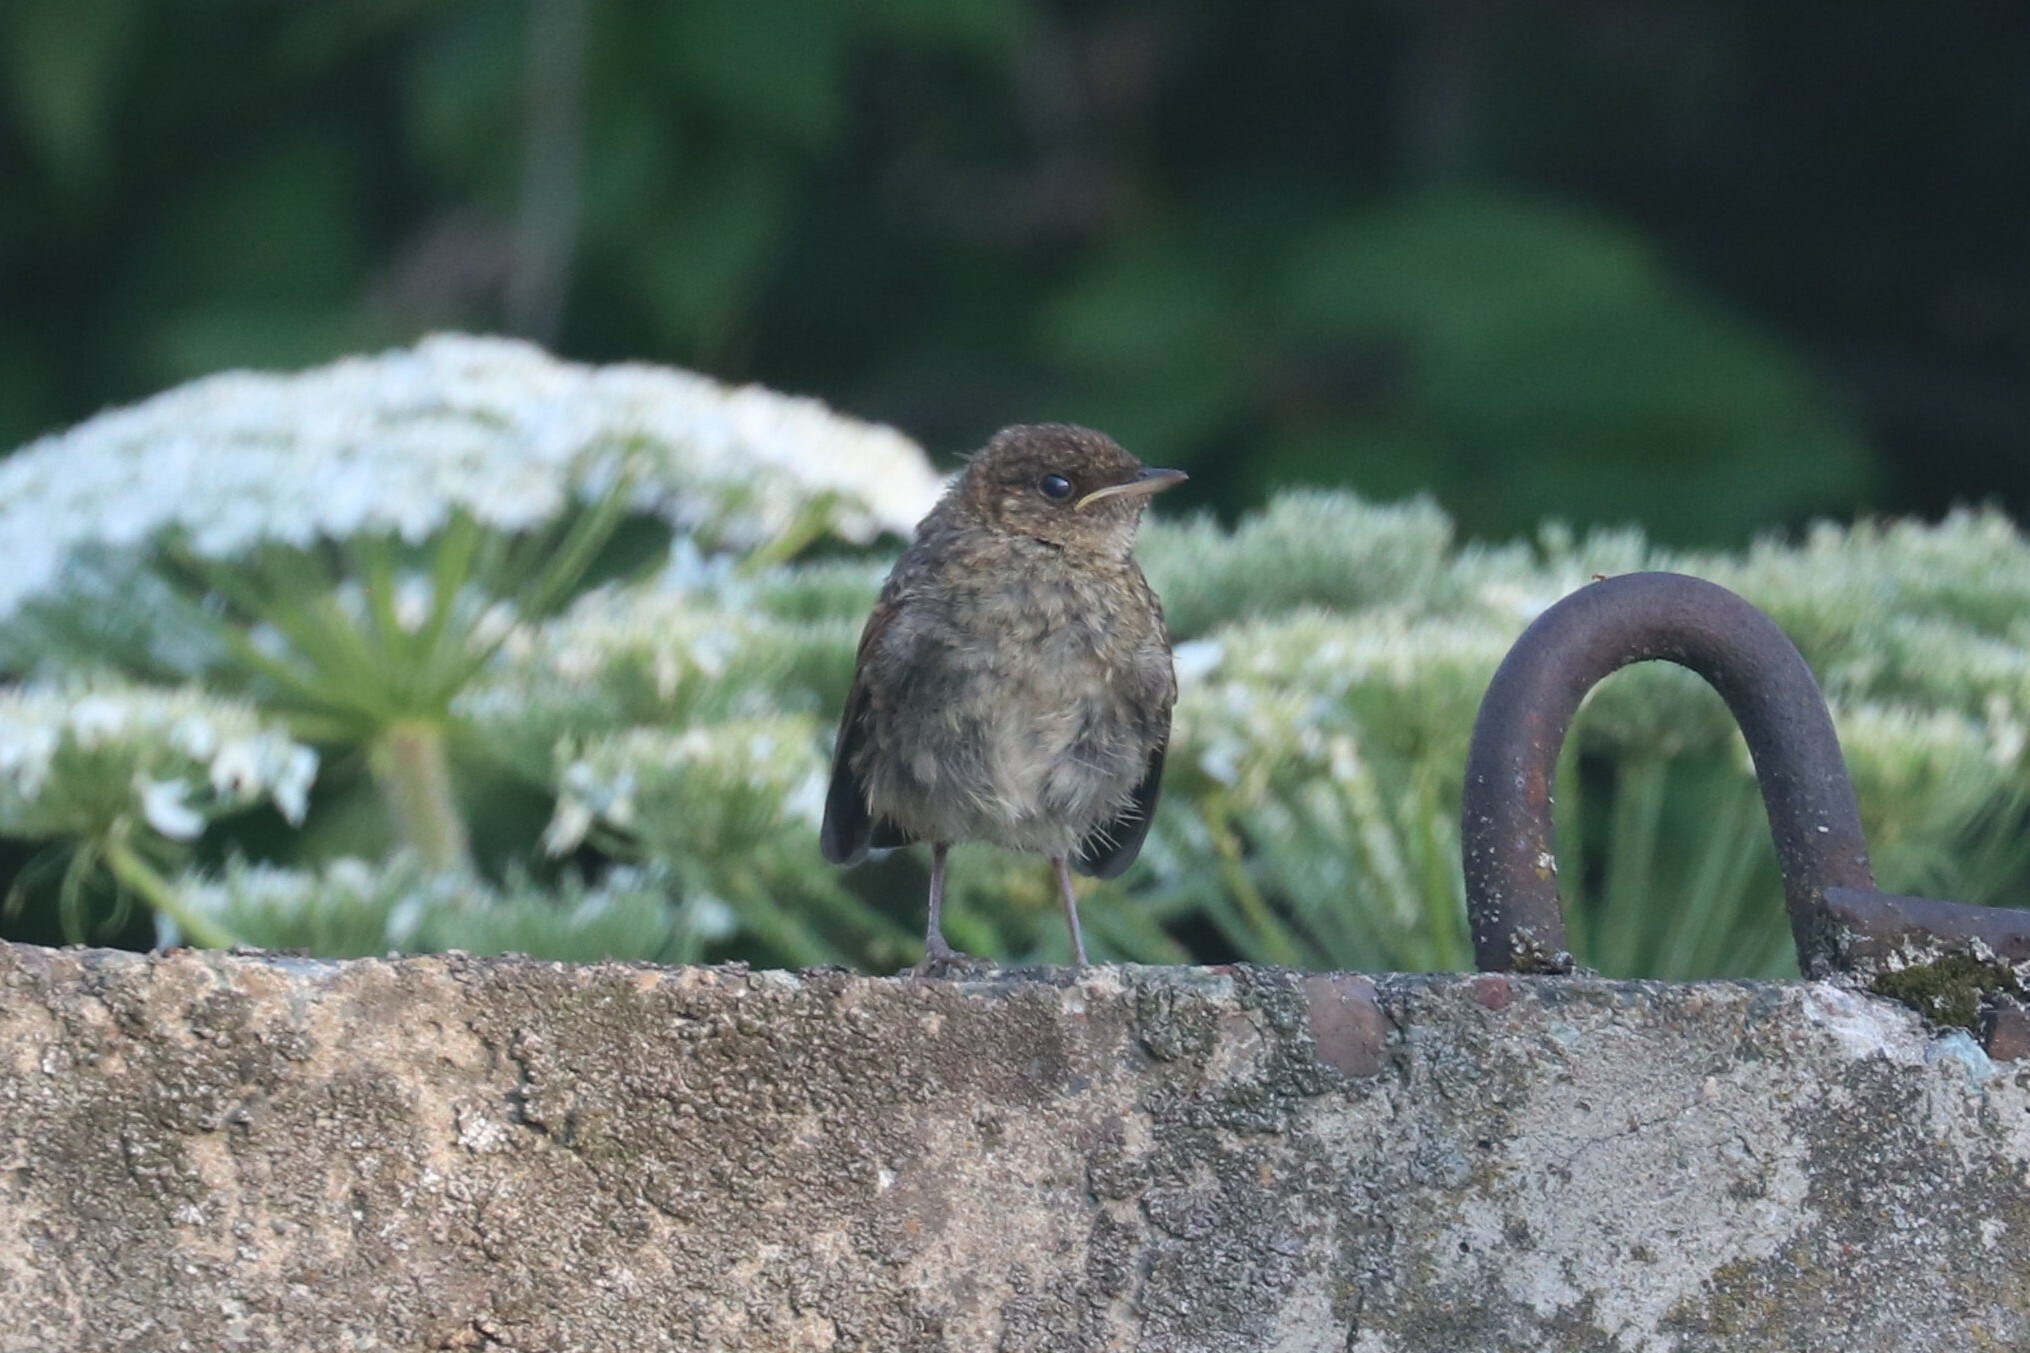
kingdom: Animalia
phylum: Chordata
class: Aves
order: Passeriformes
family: Muscicapidae
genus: Phoenicurus
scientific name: Phoenicurus ochruros
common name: Black redstart
